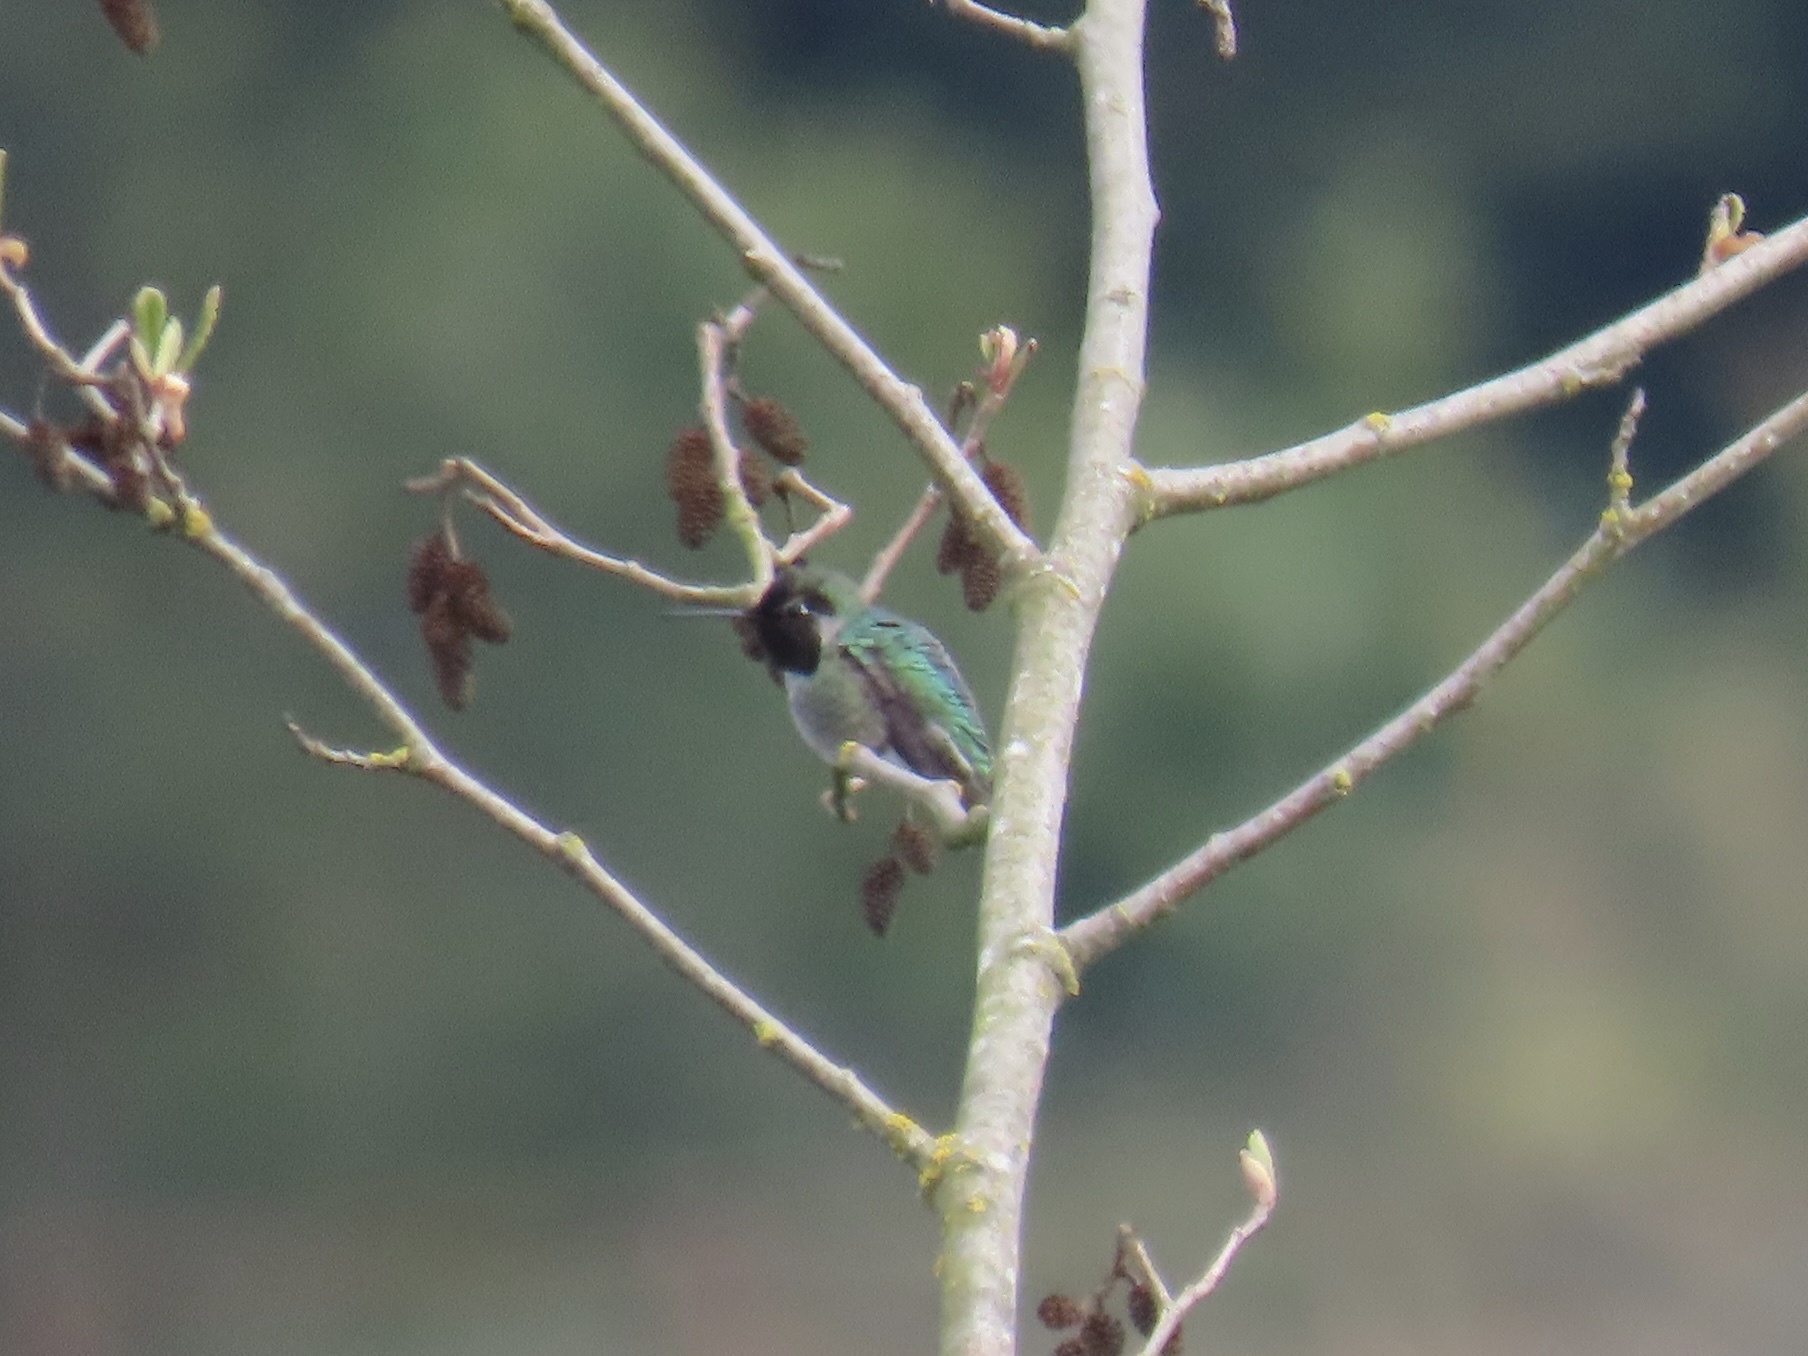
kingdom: Animalia
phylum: Chordata
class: Aves
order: Apodiformes
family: Trochilidae
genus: Calypte
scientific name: Calypte anna
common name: Anna's hummingbird
